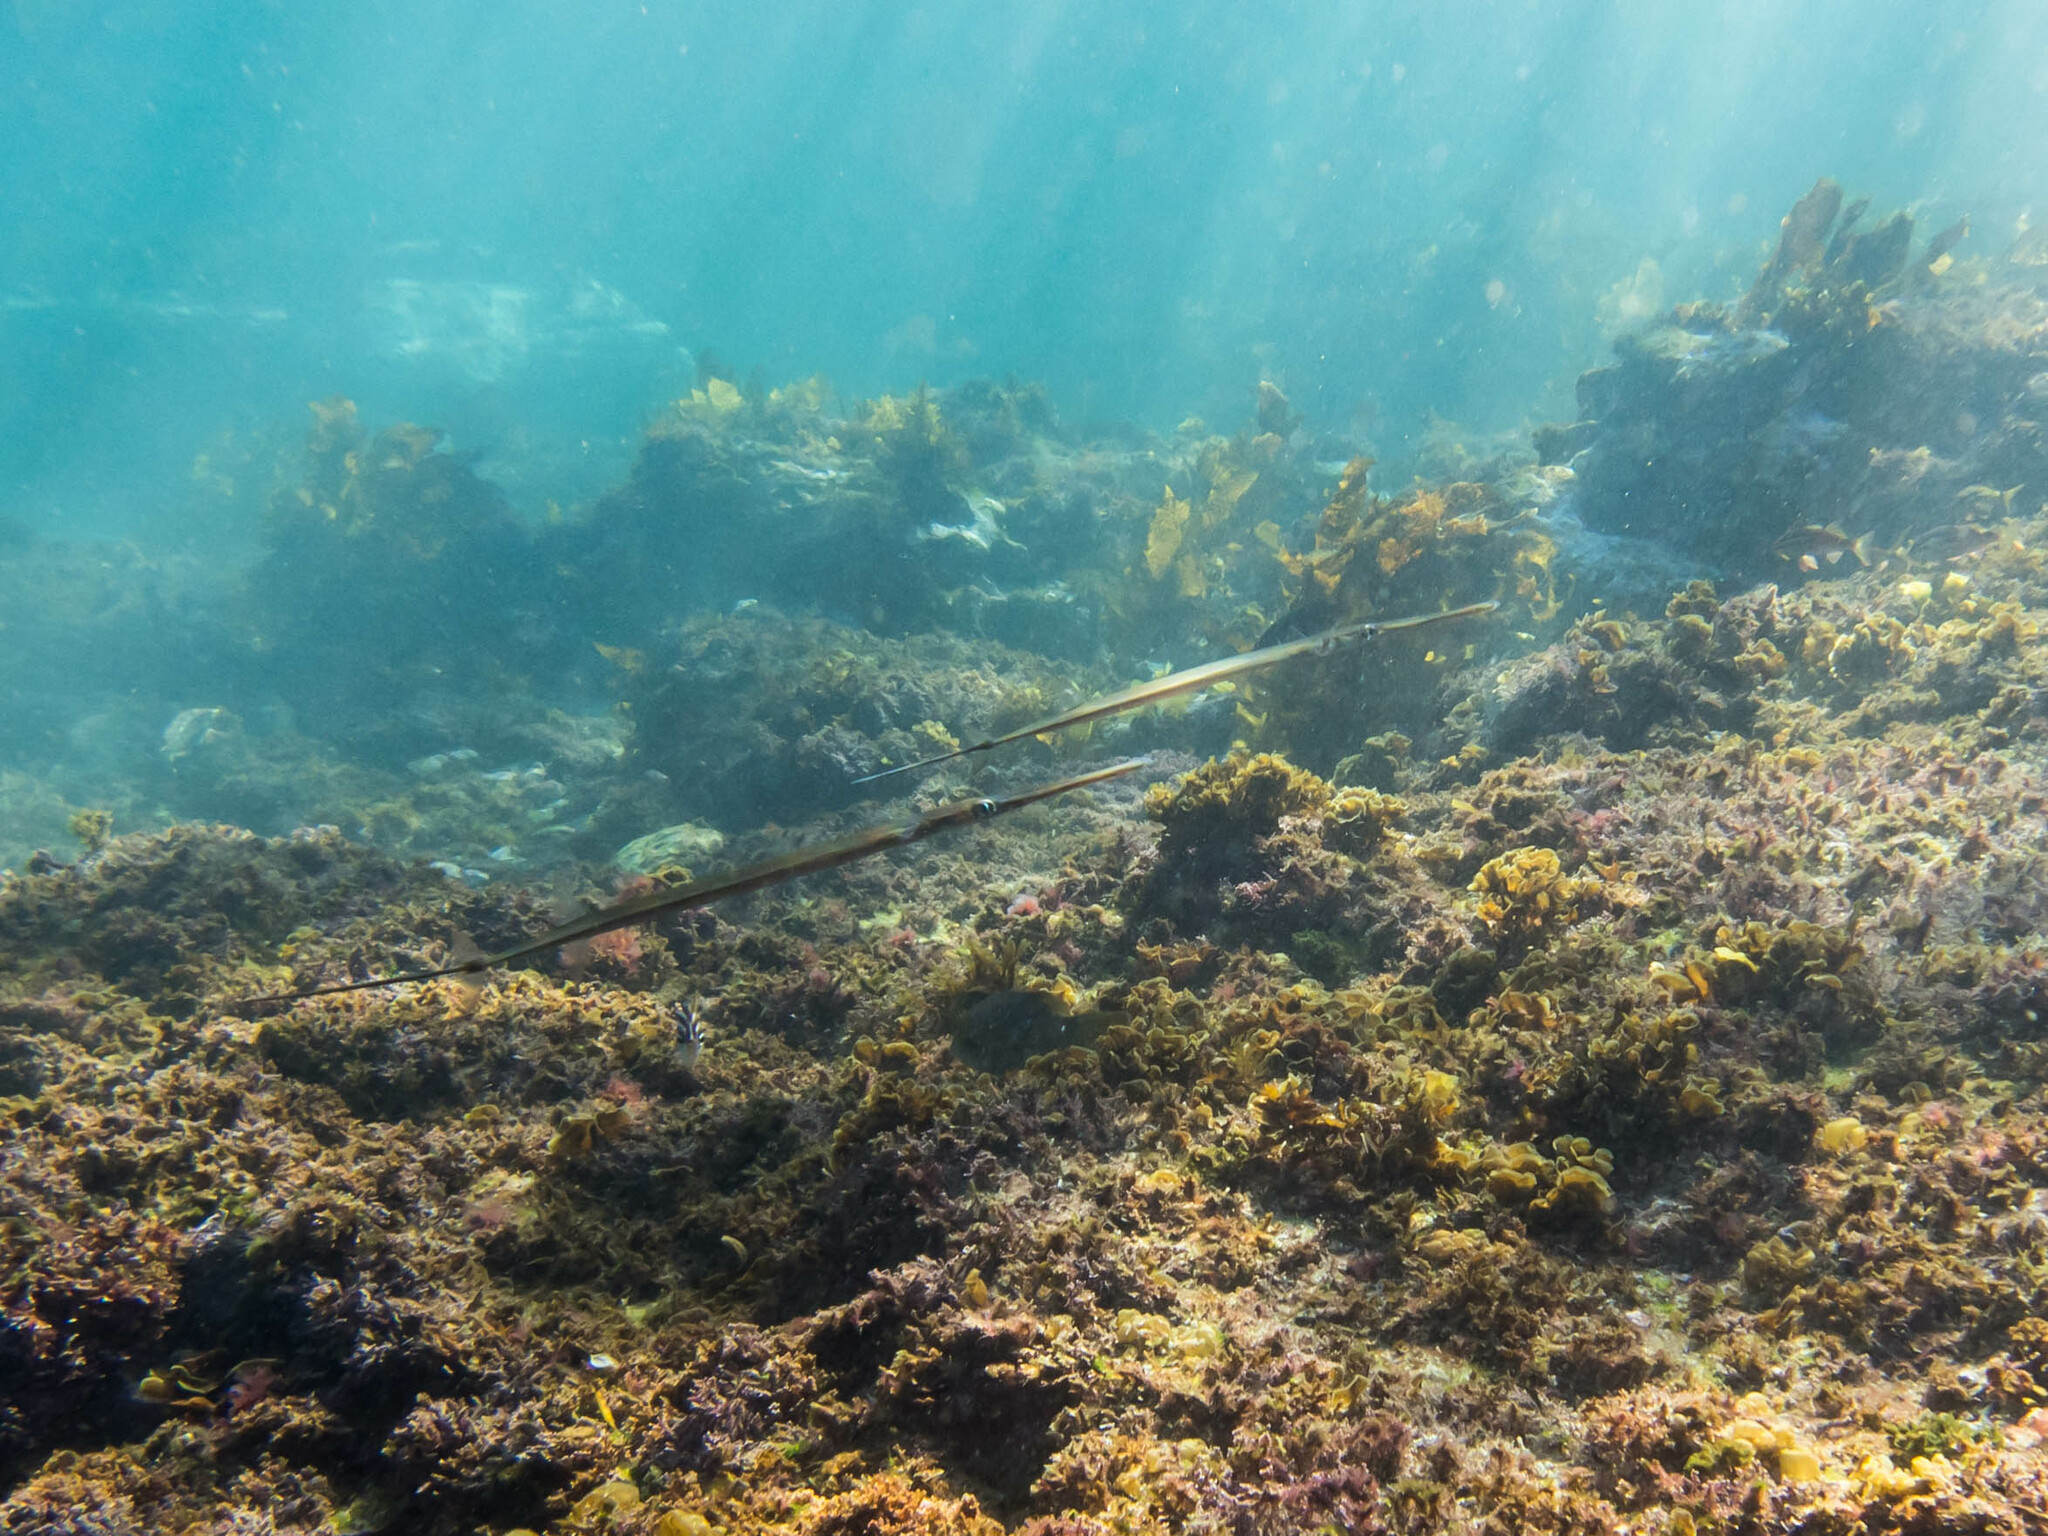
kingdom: Animalia
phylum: Chordata
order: Syngnathiformes
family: Fistulariidae
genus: Fistularia
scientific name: Fistularia commersonii
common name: Bluespotted cornetfish
